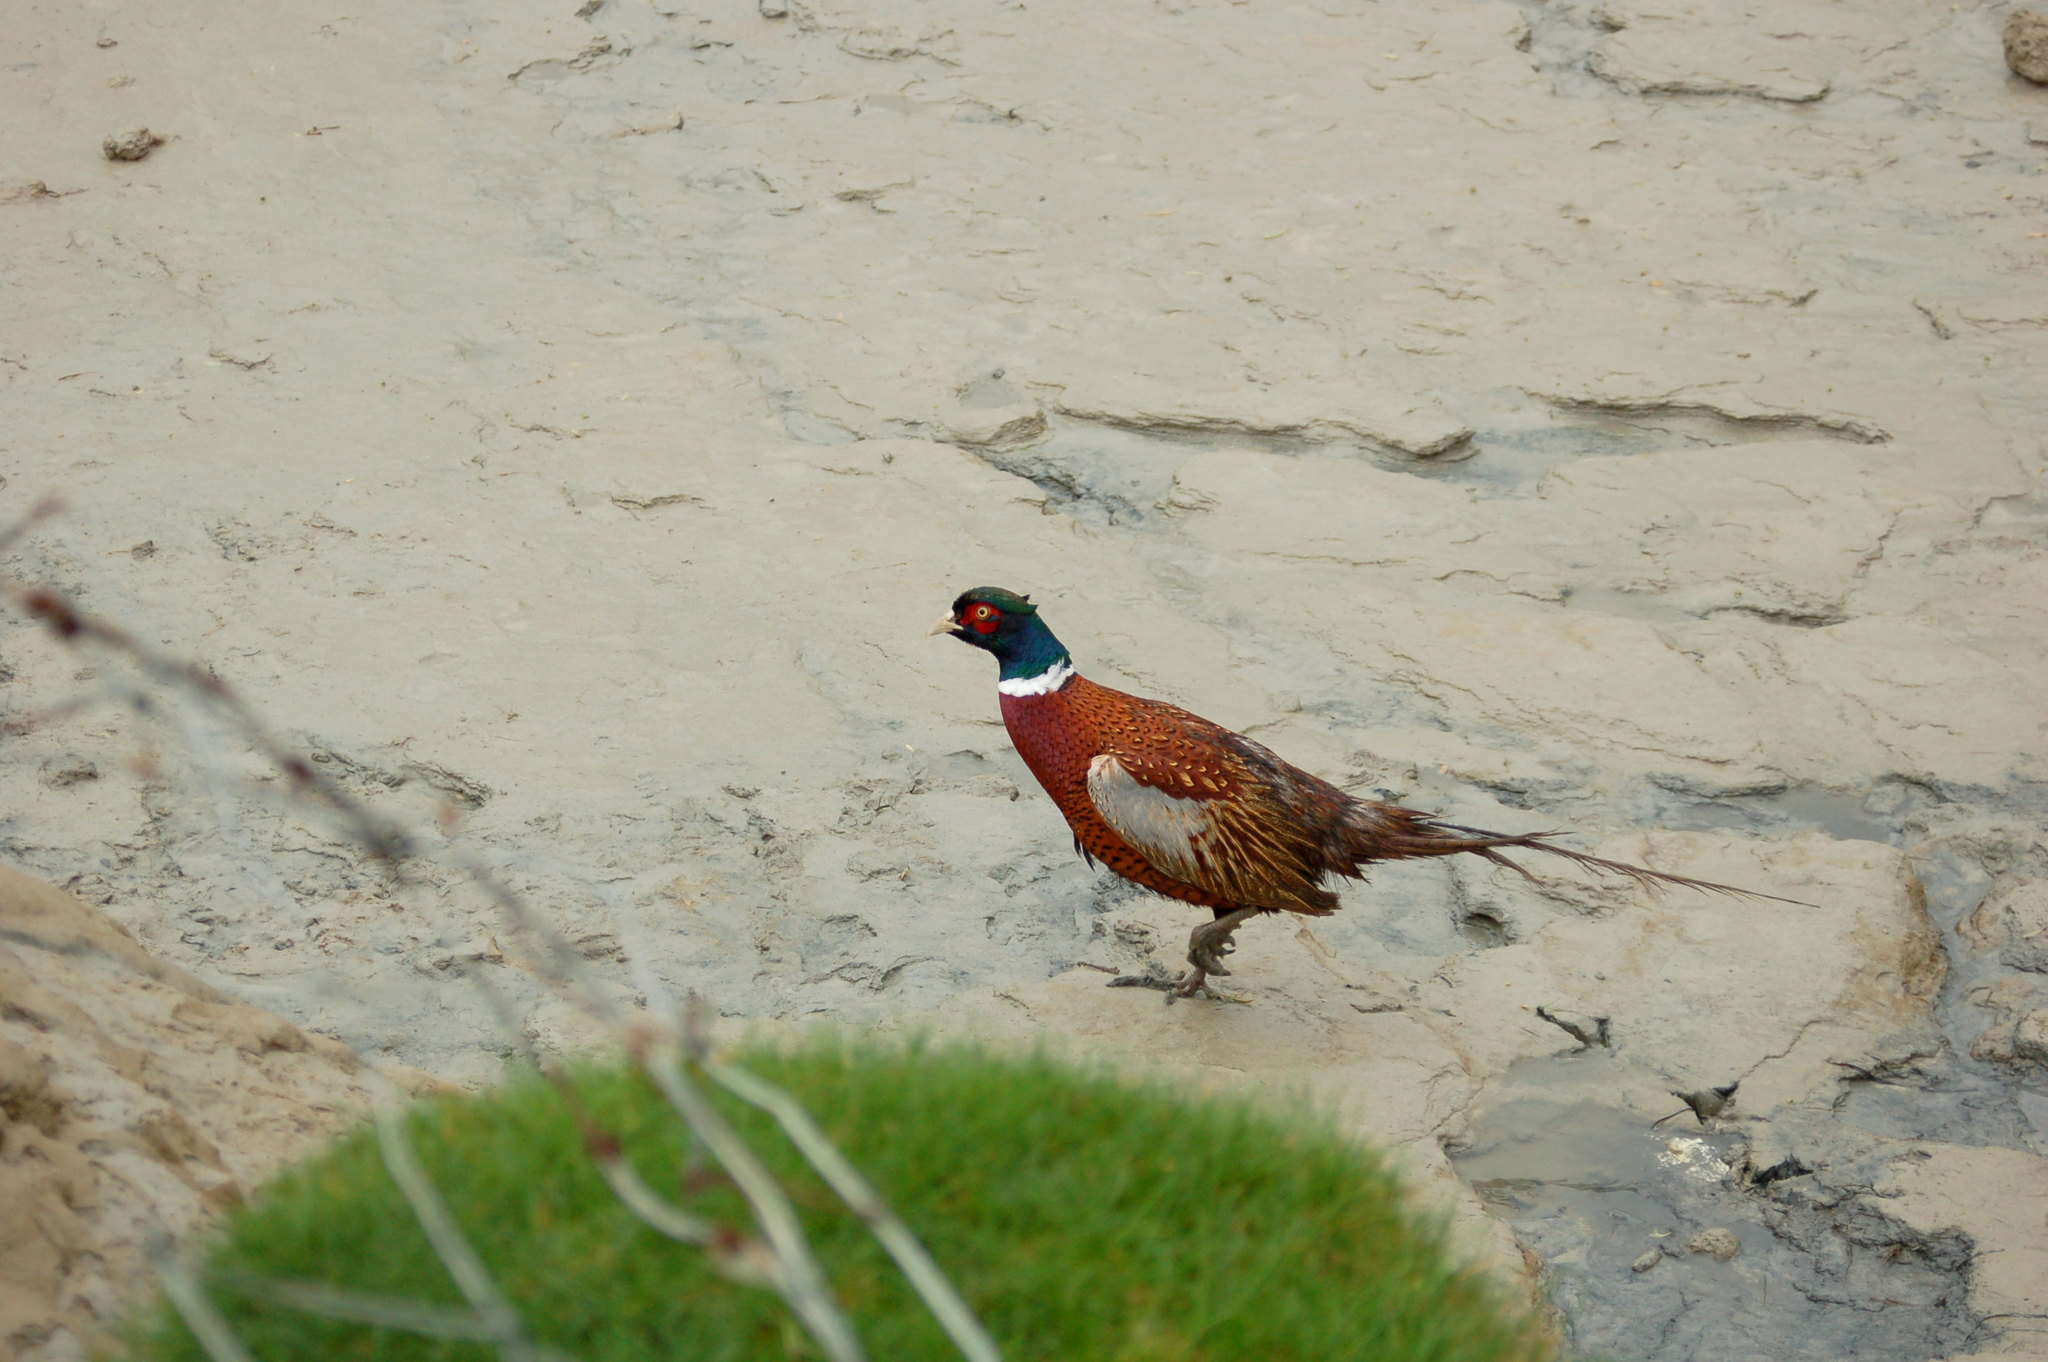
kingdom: Animalia
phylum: Chordata
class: Aves
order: Galliformes
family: Phasianidae
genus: Phasianus
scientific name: Phasianus colchicus
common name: Common pheasant
